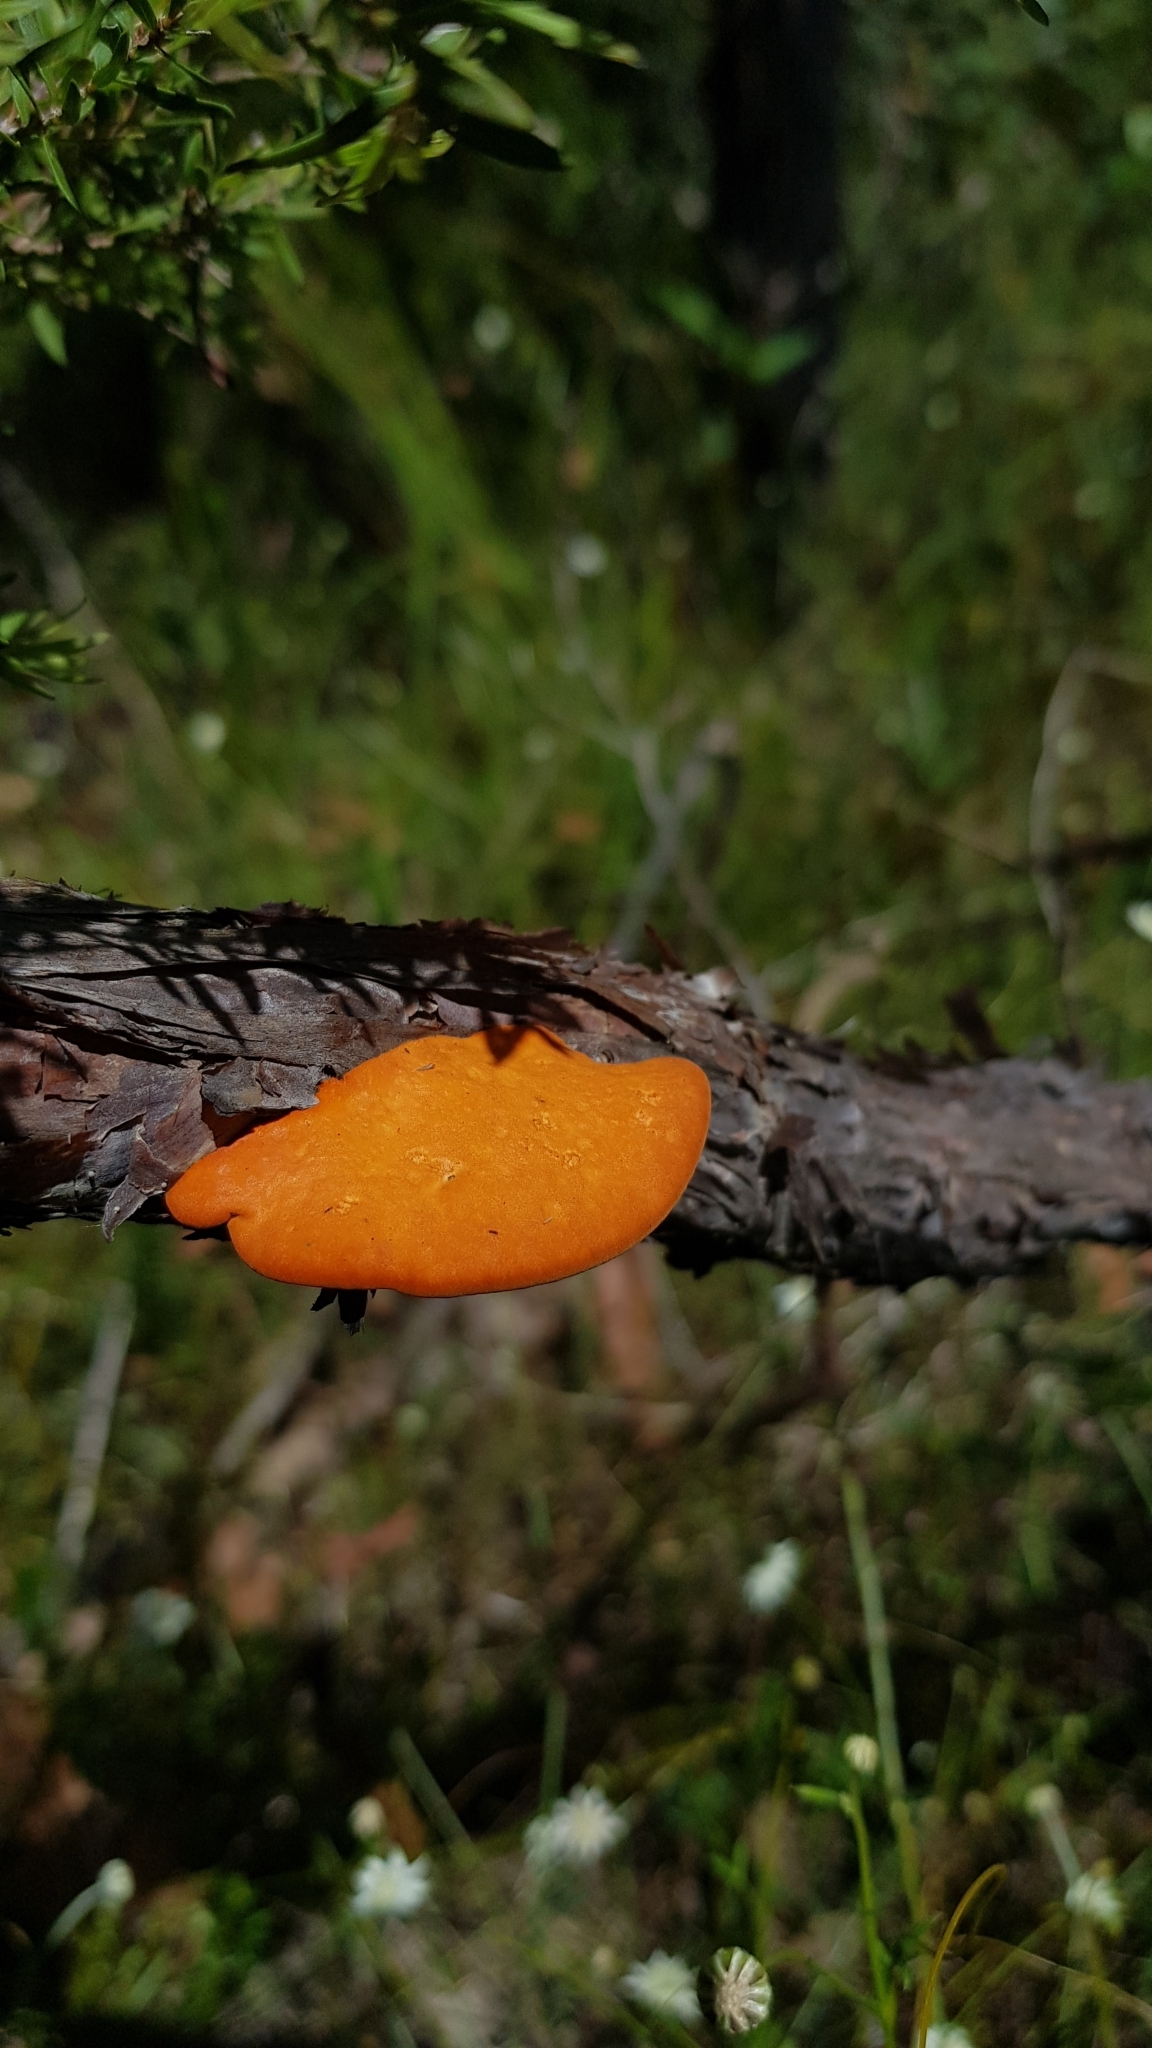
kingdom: Fungi
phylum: Basidiomycota
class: Agaricomycetes
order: Polyporales
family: Polyporaceae
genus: Trametes
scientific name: Trametes coccinea
